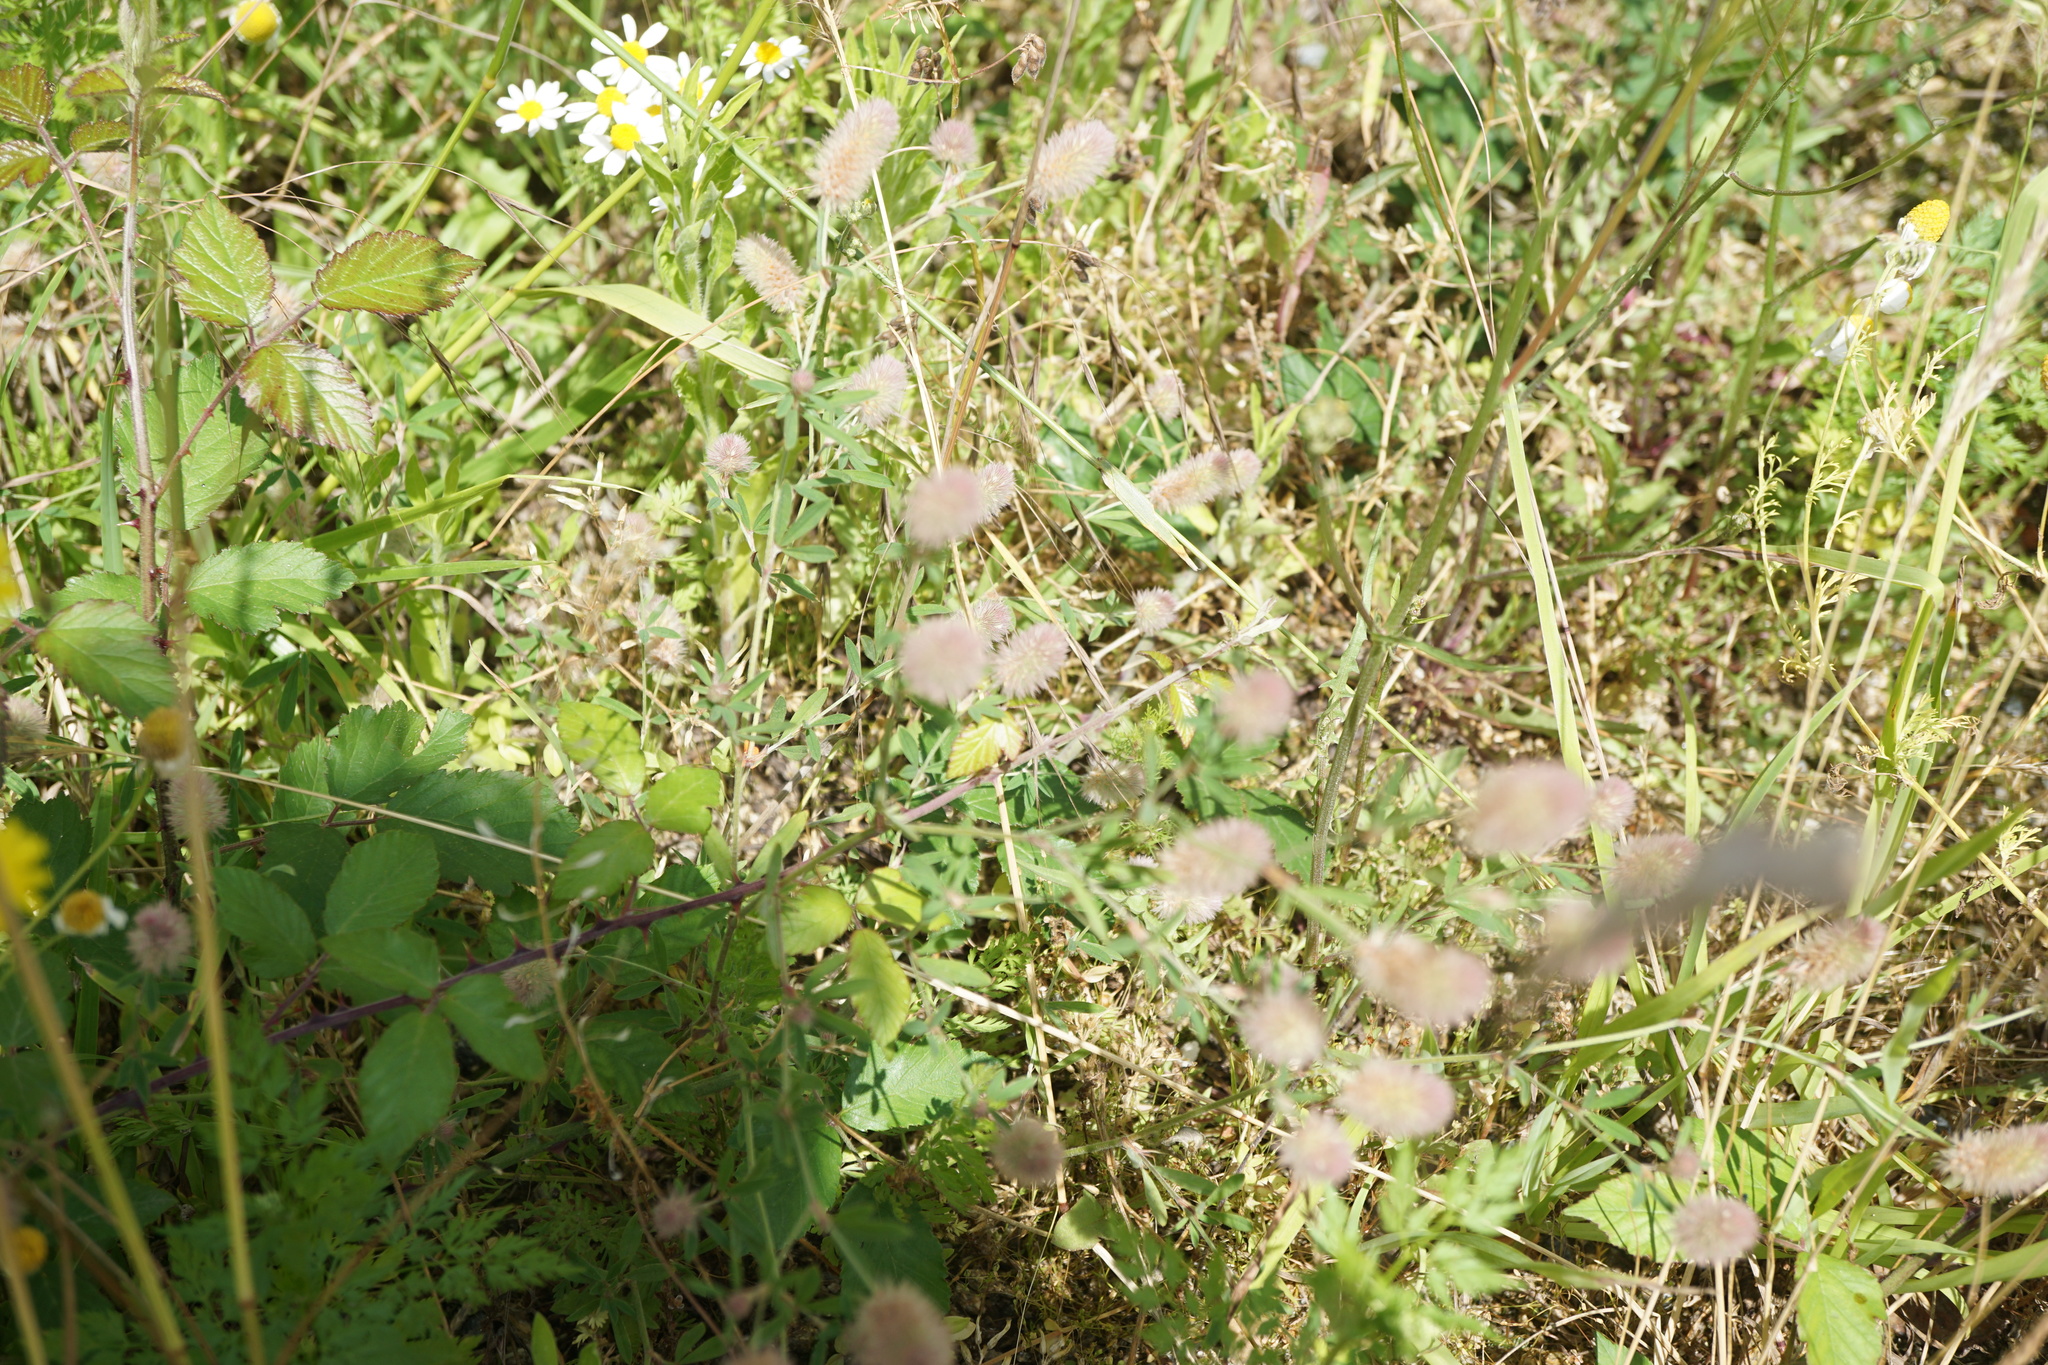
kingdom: Plantae
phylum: Tracheophyta
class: Magnoliopsida
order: Fabales
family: Fabaceae
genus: Trifolium
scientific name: Trifolium arvense
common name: Hare's-foot clover
